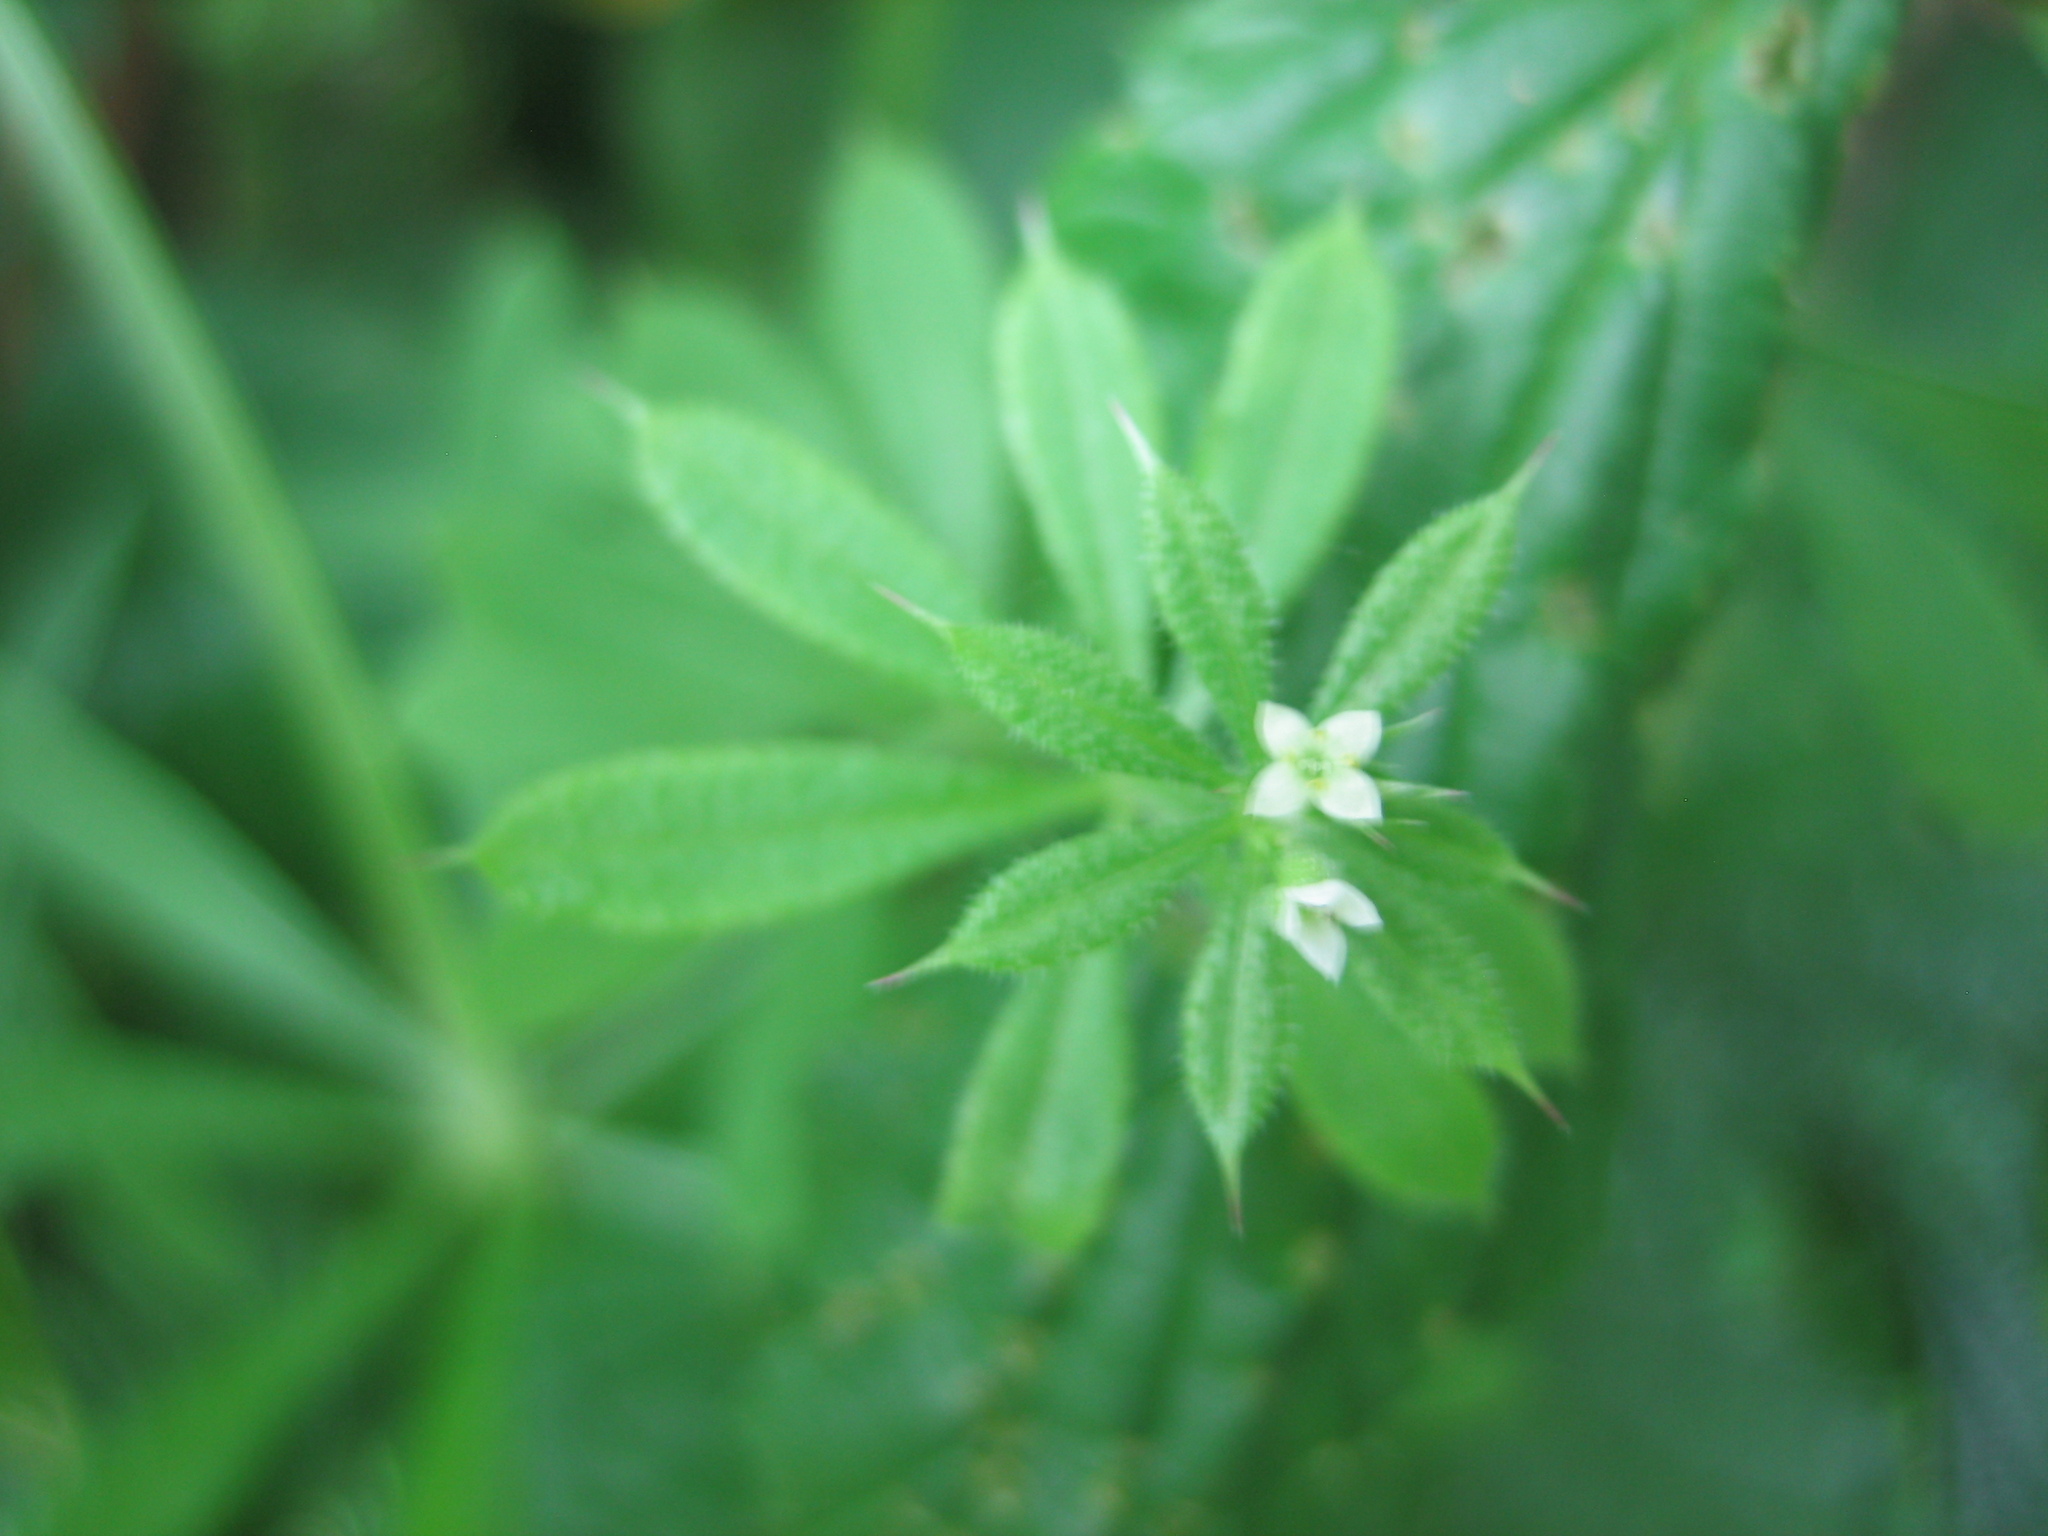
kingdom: Plantae
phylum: Tracheophyta
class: Magnoliopsida
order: Gentianales
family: Rubiaceae
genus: Galium
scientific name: Galium aparine
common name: Cleavers
